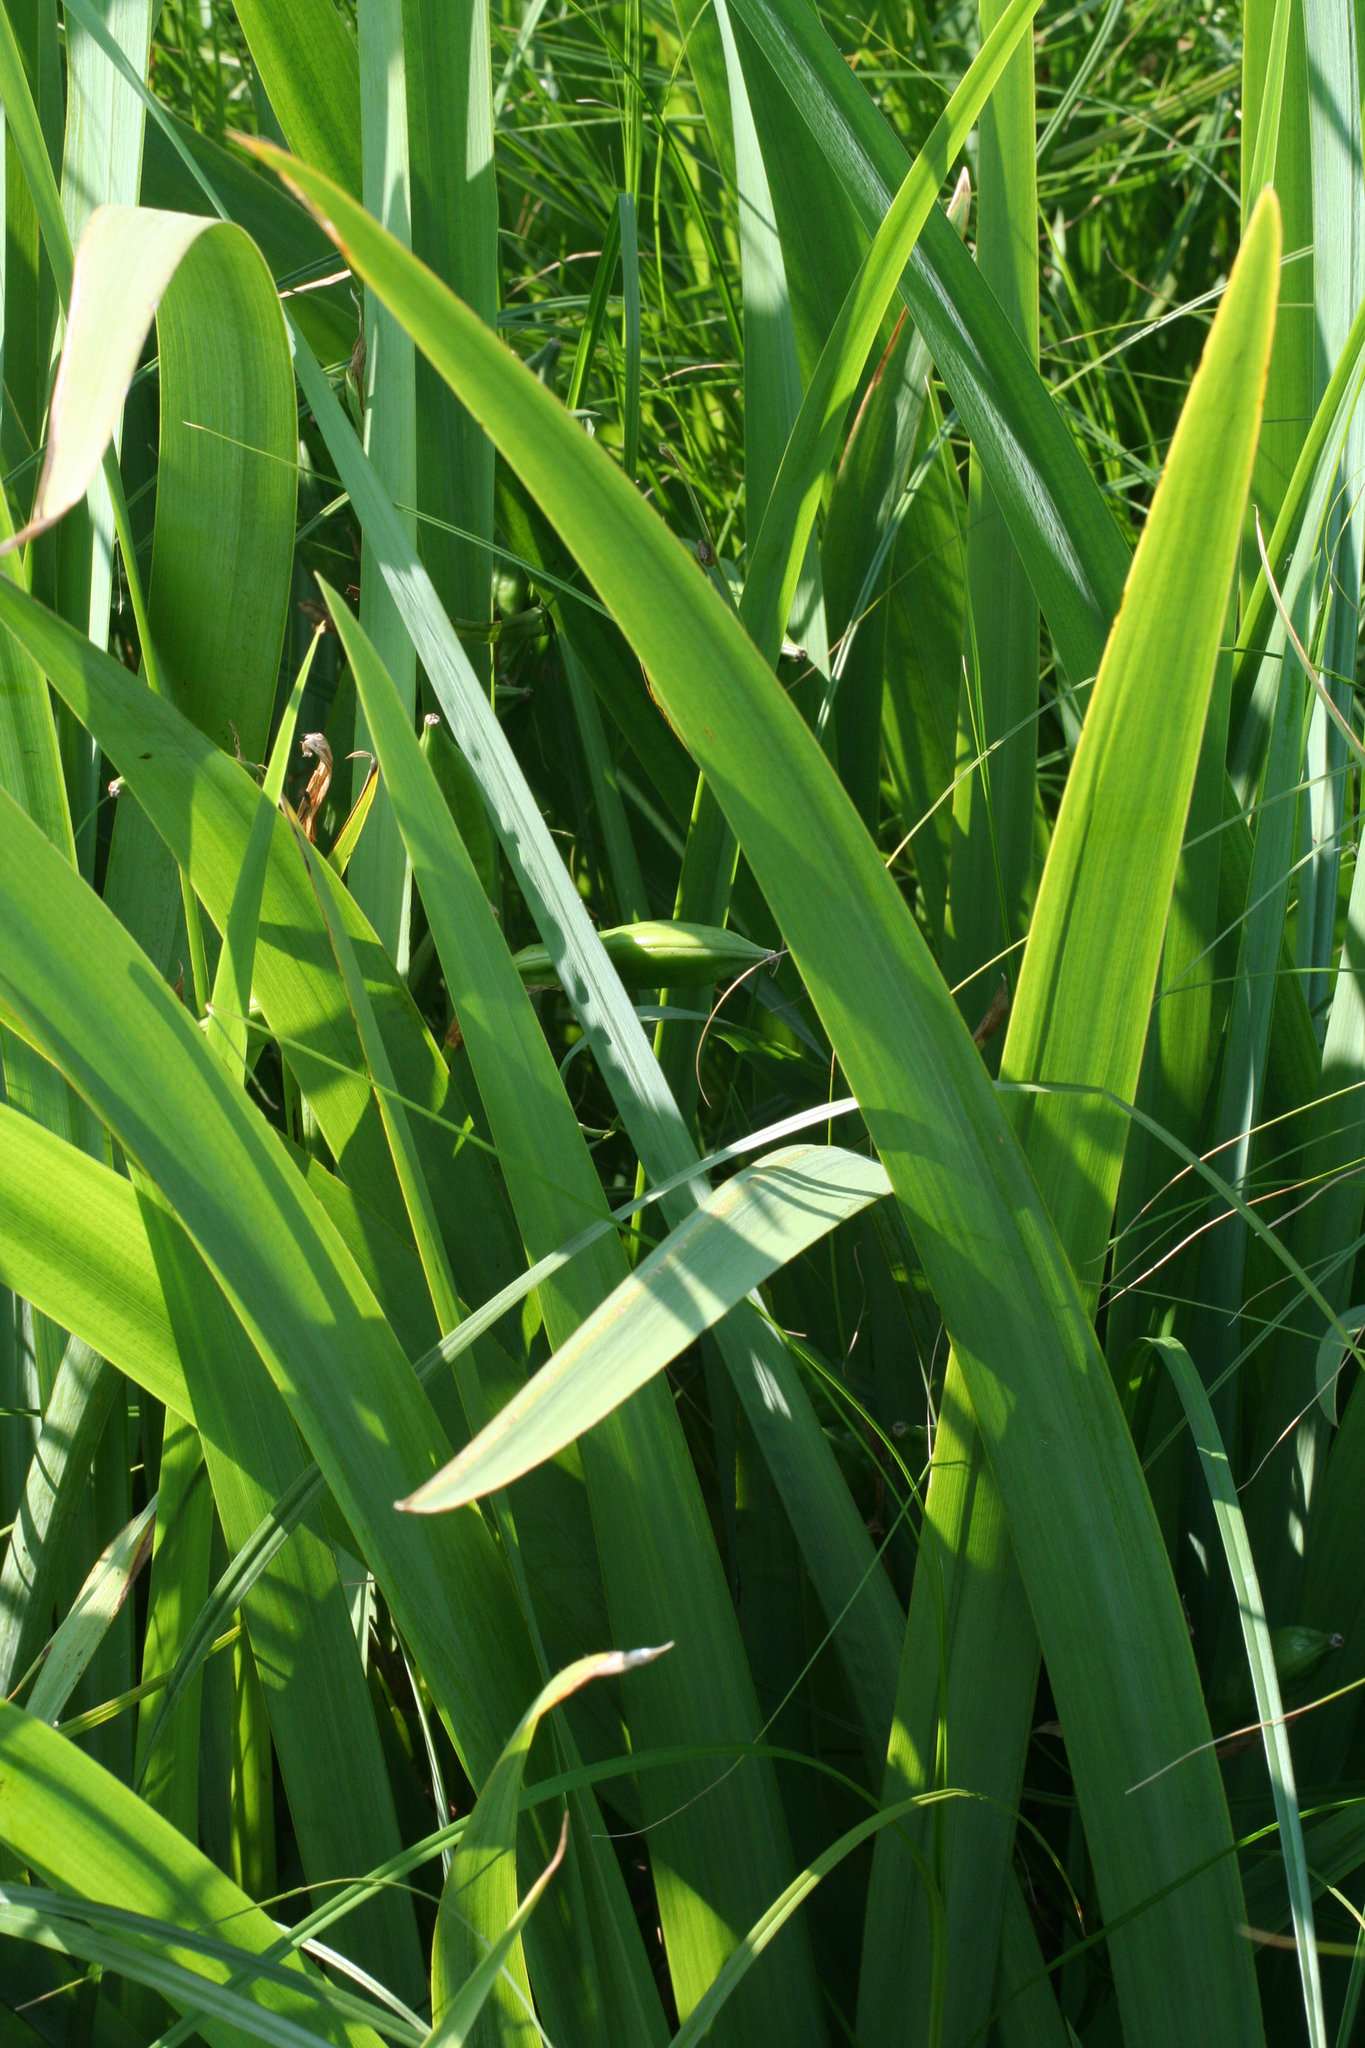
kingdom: Plantae
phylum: Tracheophyta
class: Liliopsida
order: Asparagales
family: Iridaceae
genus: Iris
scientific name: Iris pseudacorus
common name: Yellow flag
